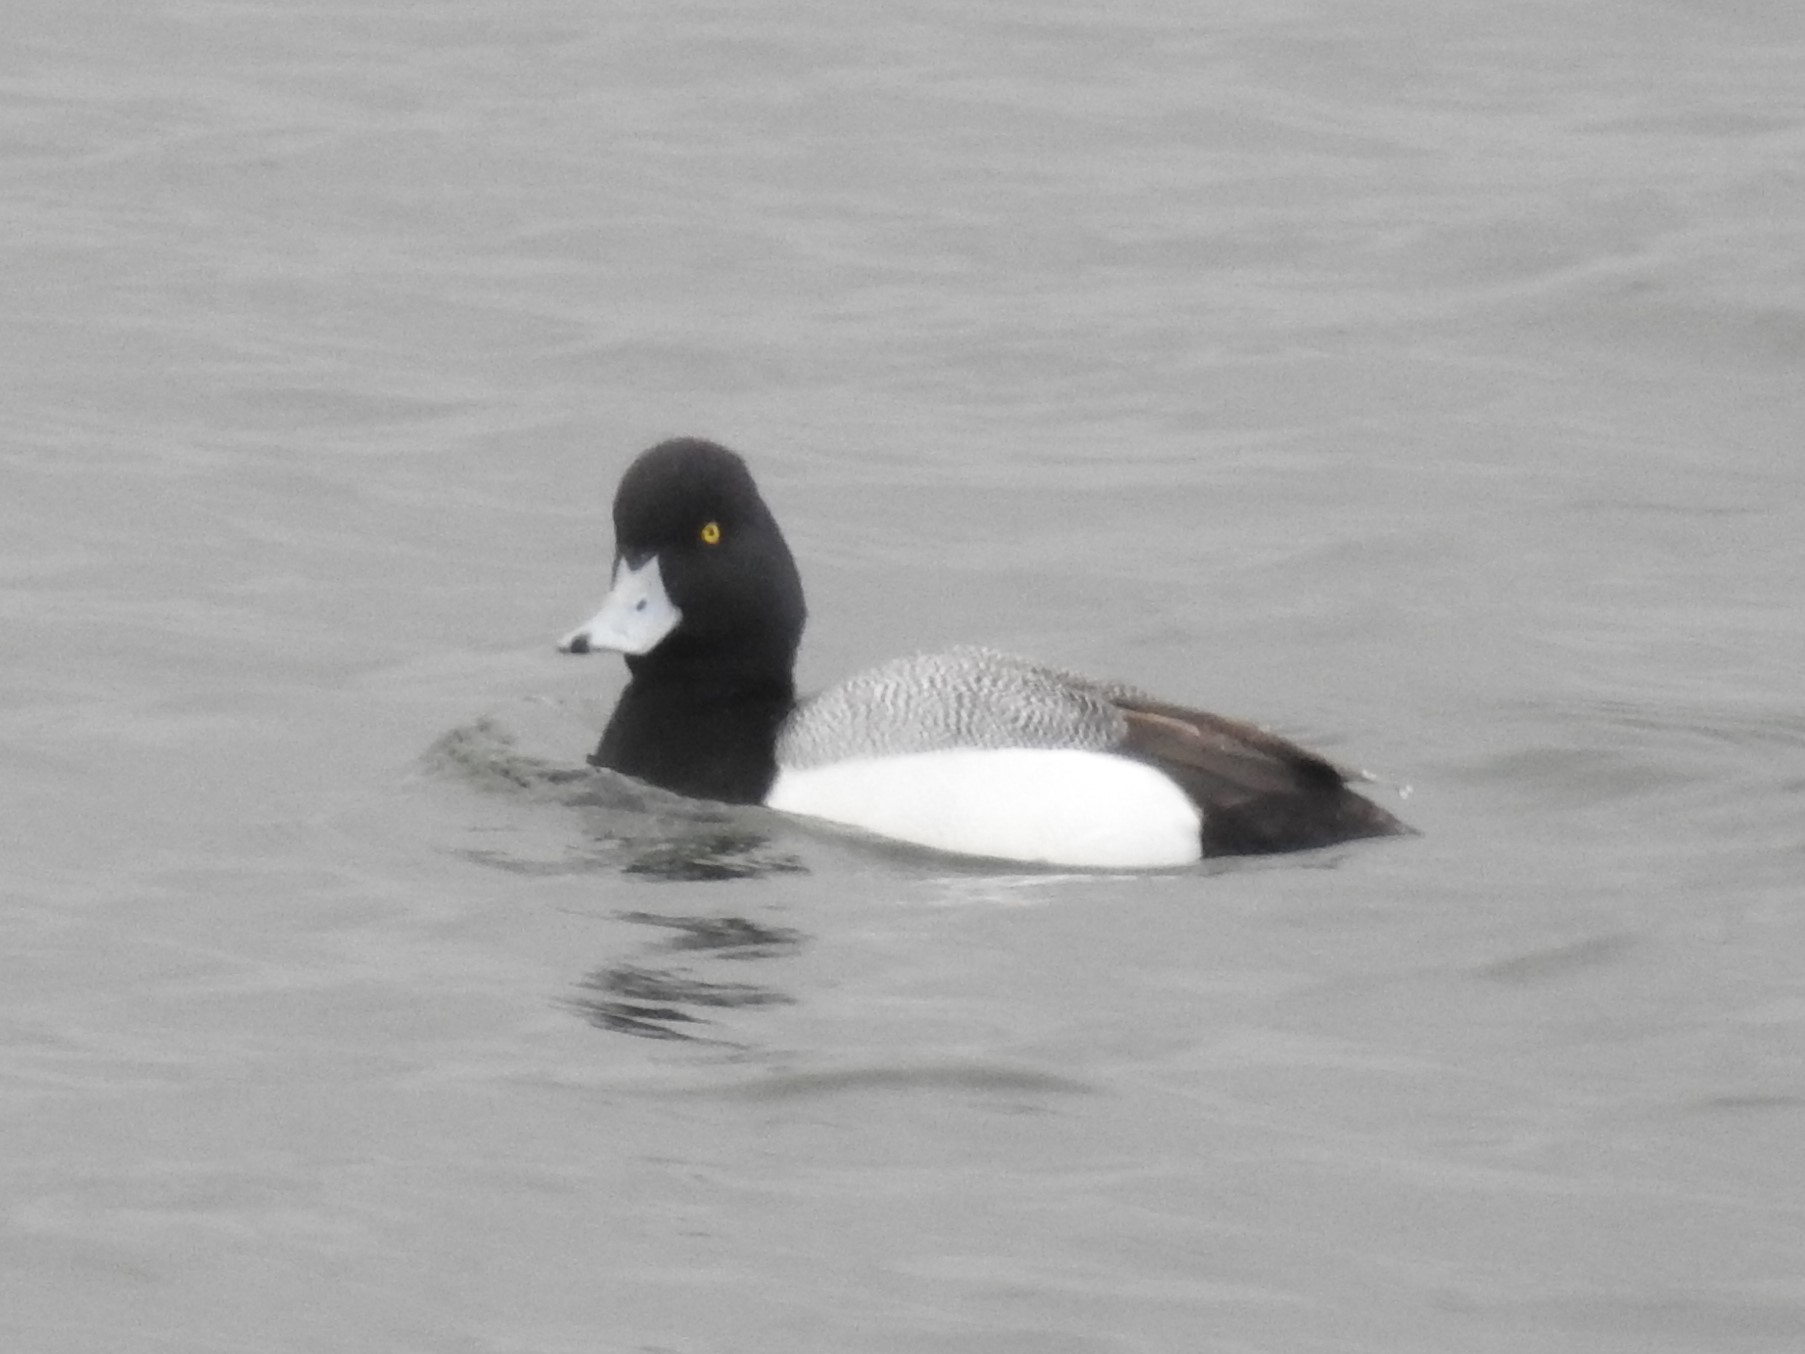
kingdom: Animalia
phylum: Chordata
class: Aves
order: Anseriformes
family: Anatidae
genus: Aythya
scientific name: Aythya affinis
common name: Lesser scaup
